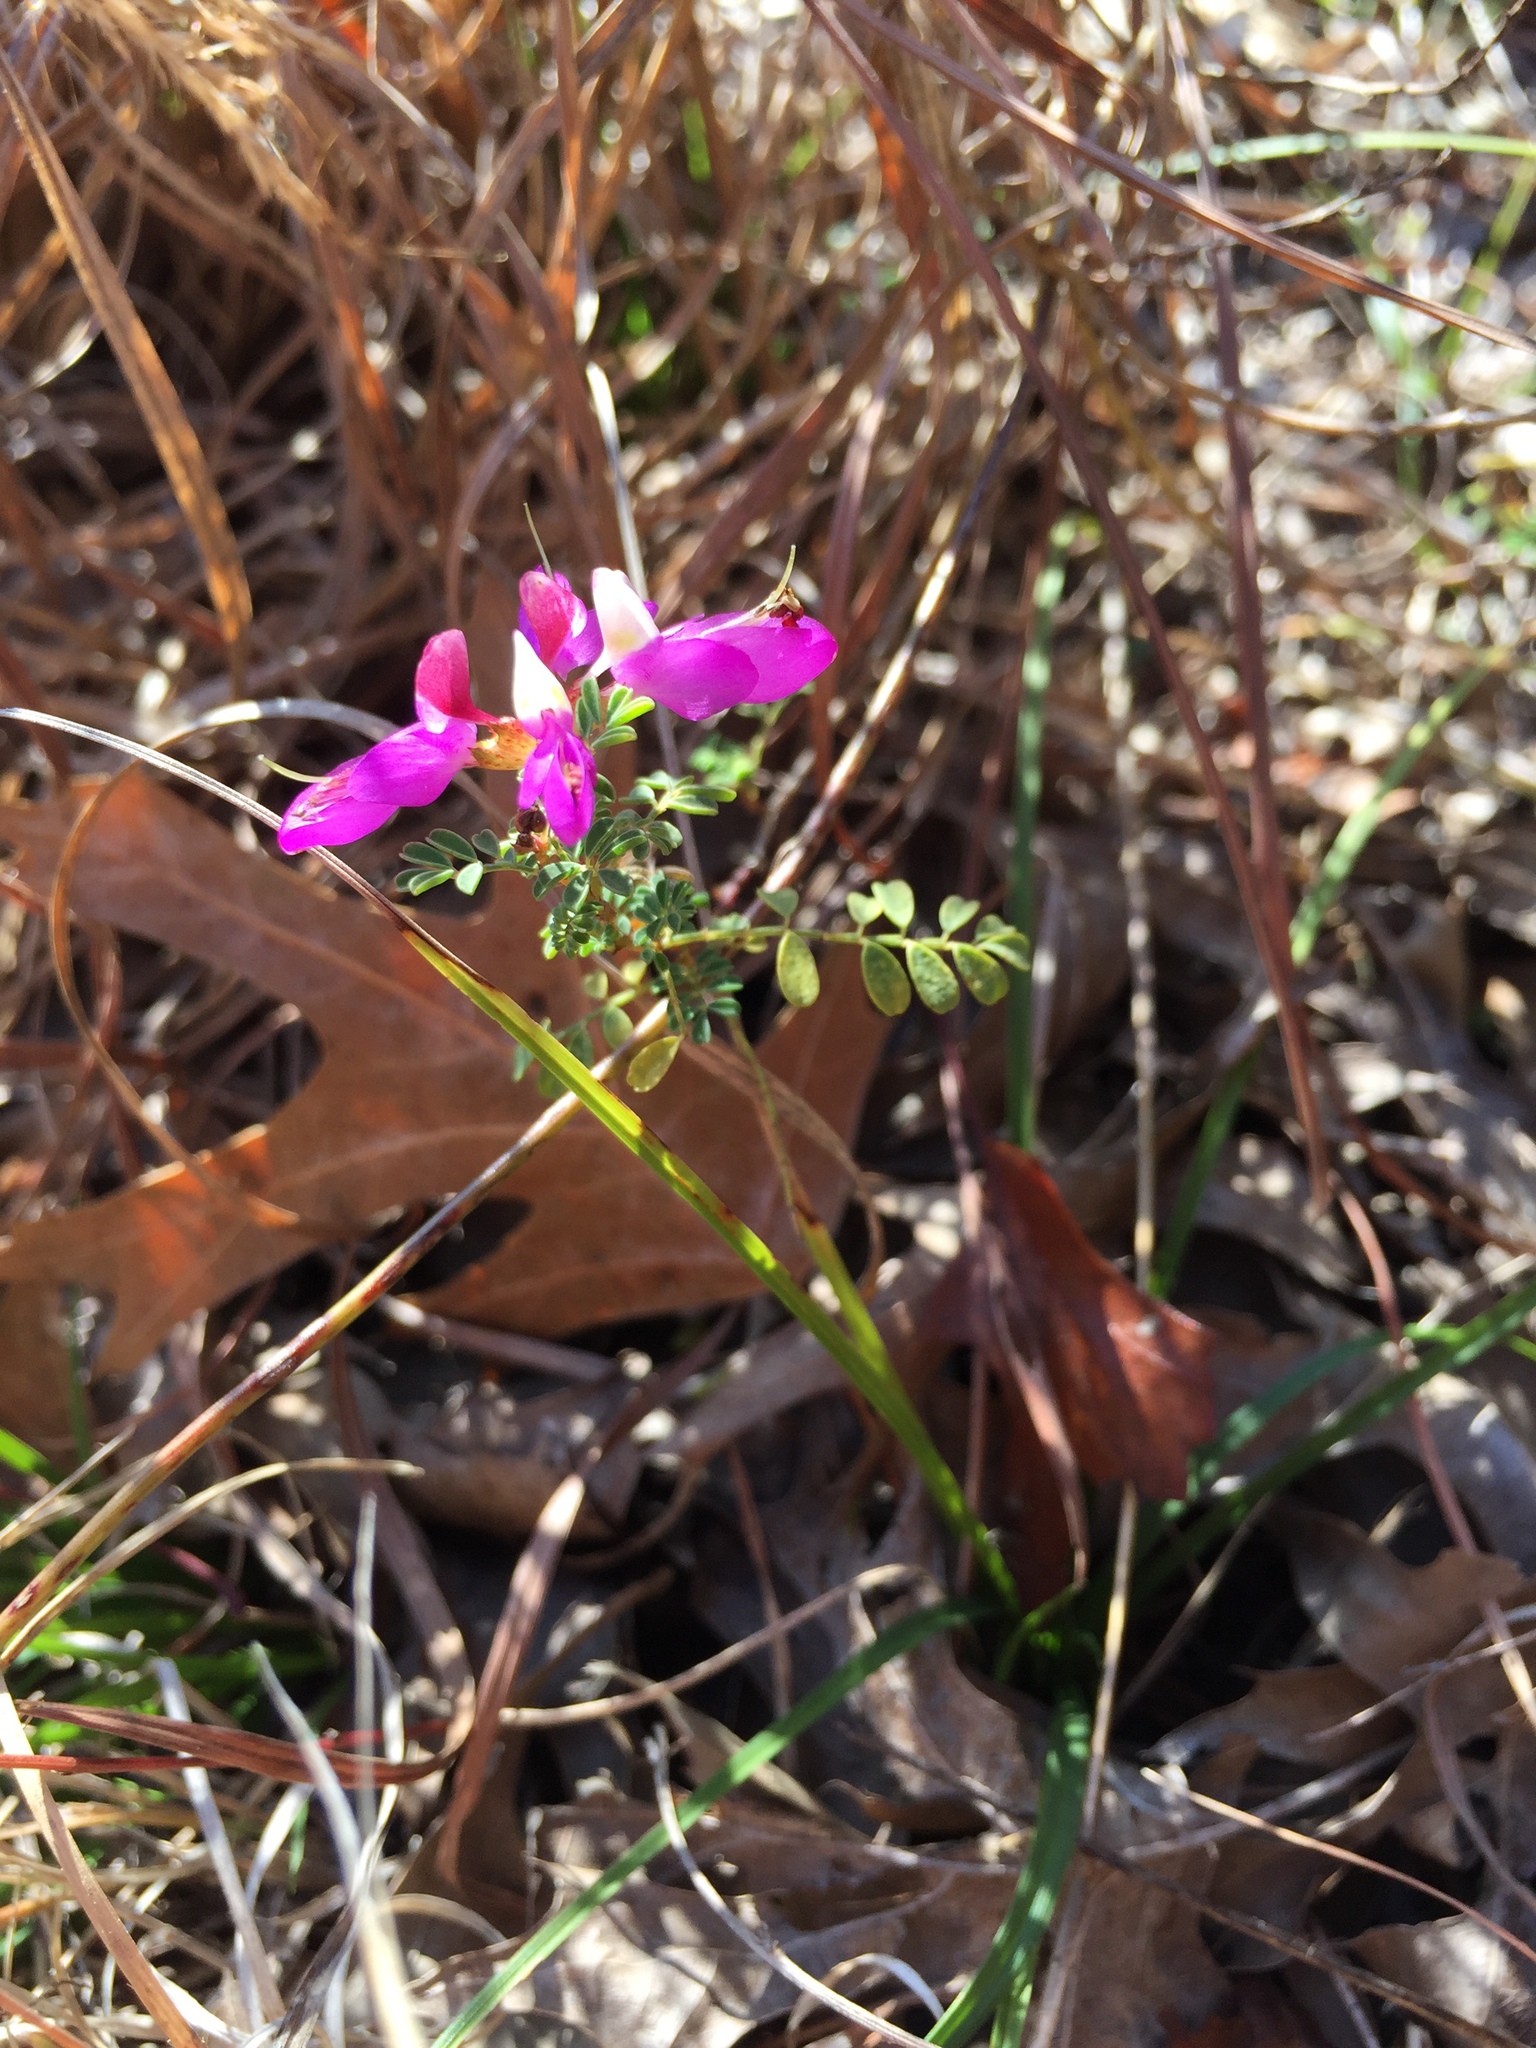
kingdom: Plantae
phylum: Tracheophyta
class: Magnoliopsida
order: Fabales
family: Fabaceae
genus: Dalea
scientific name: Dalea frutescens
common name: Black dalea
